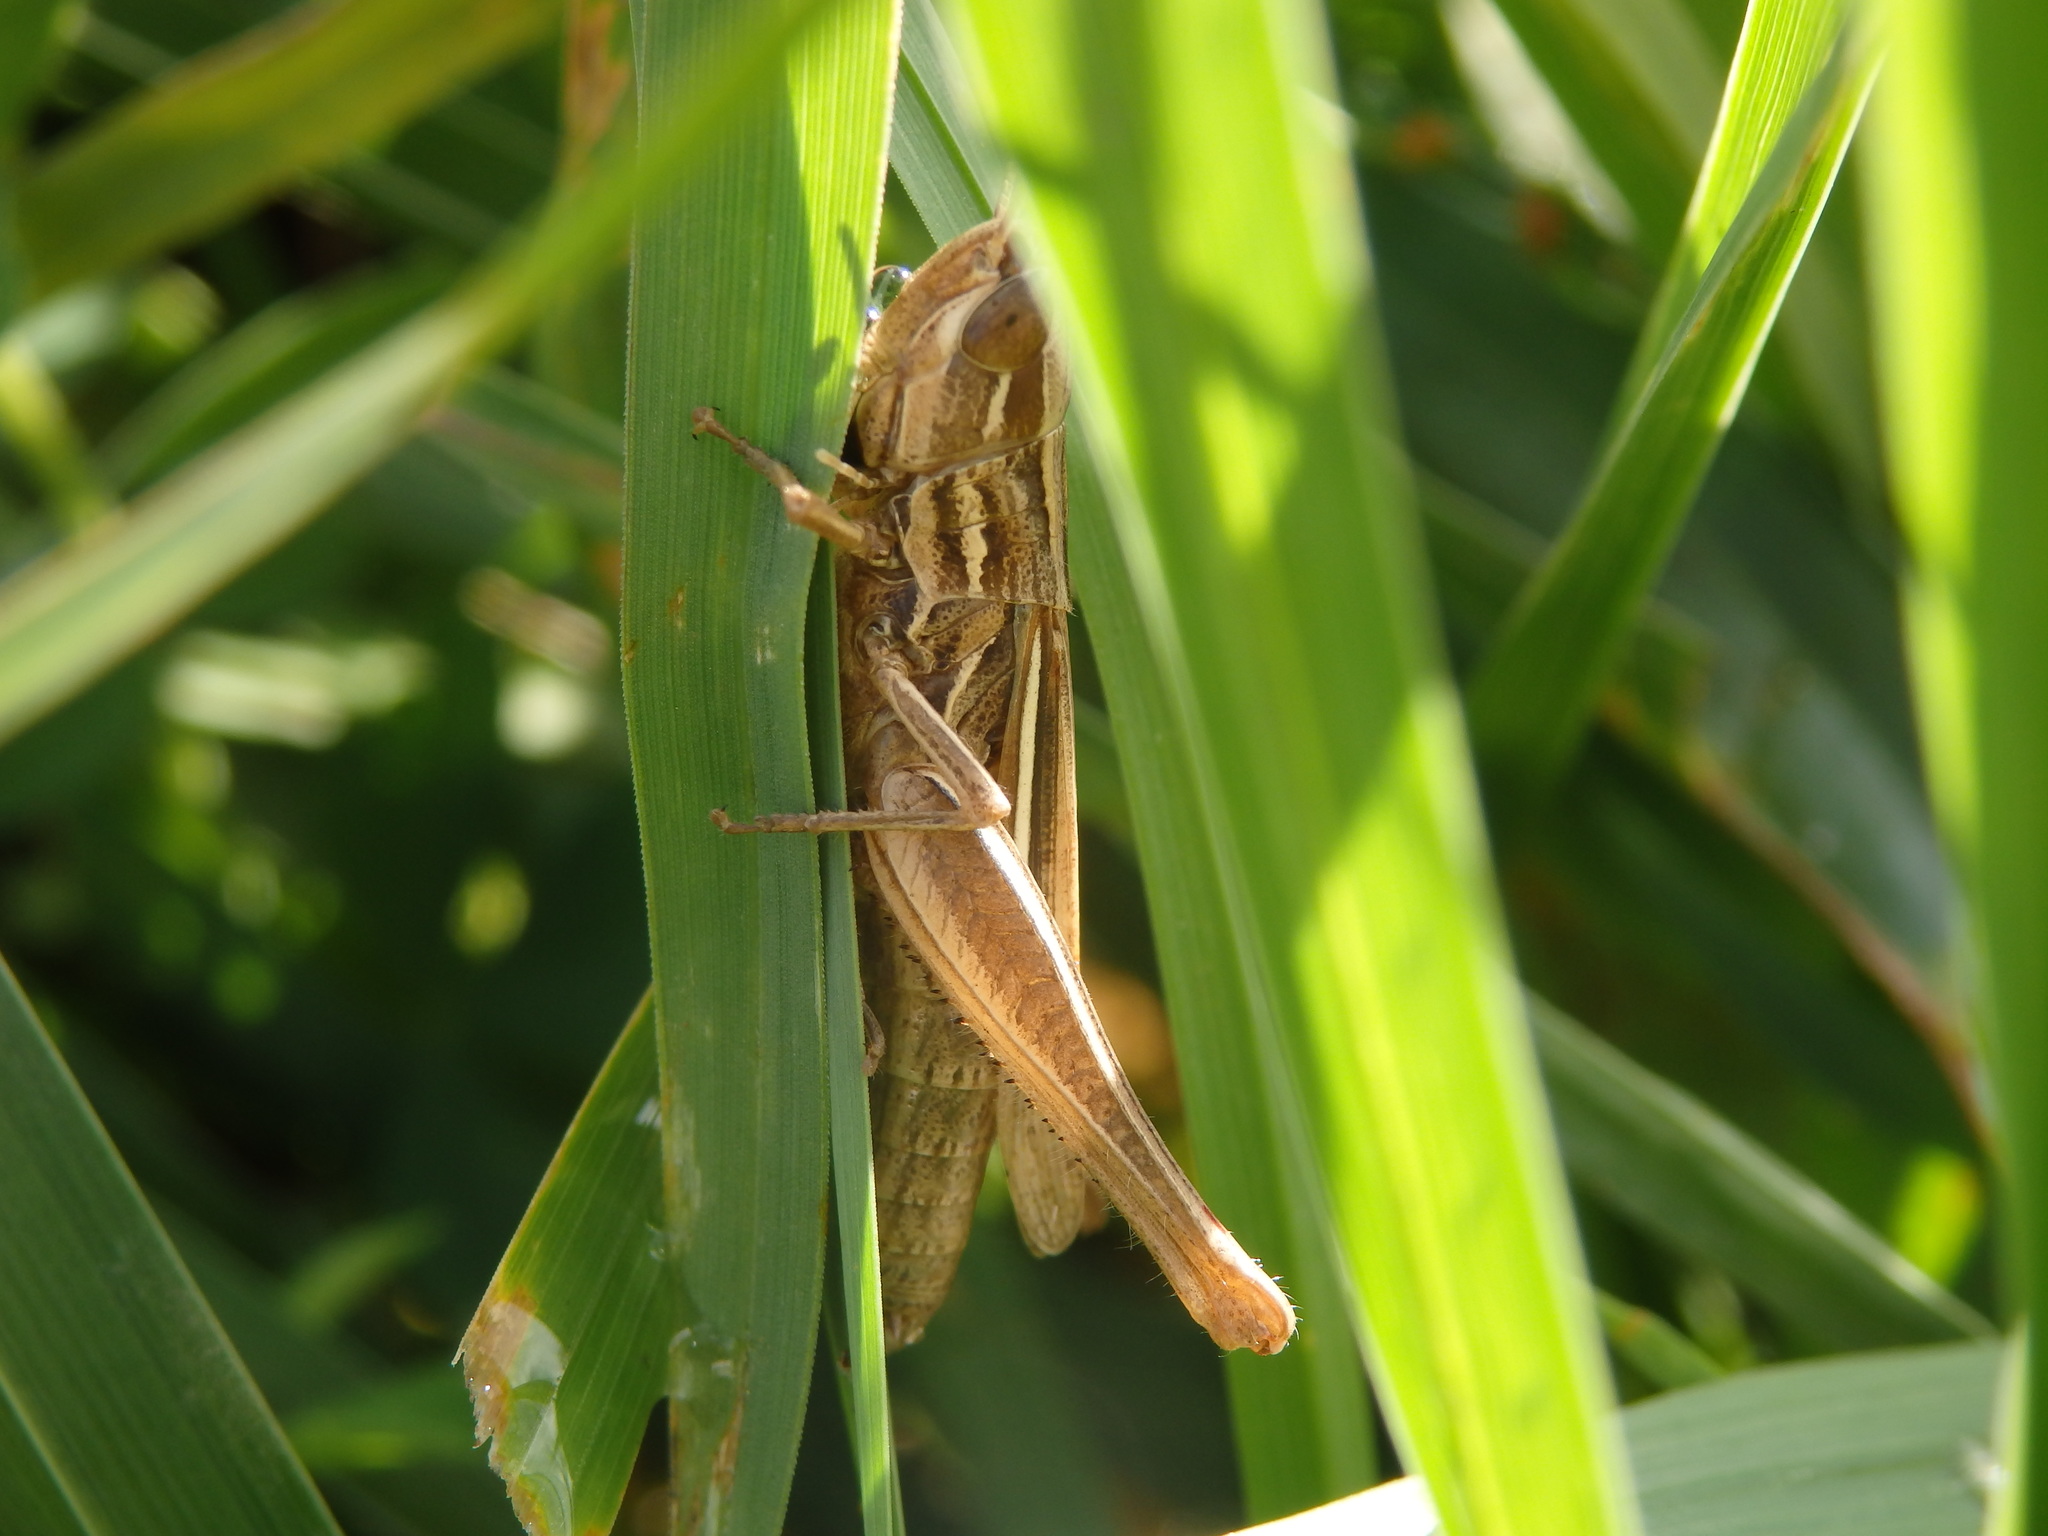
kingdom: Animalia
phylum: Arthropoda
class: Insecta
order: Orthoptera
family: Acrididae
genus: Euchorthippus
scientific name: Euchorthippus elegantulus
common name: Elegant straw grasshopper
